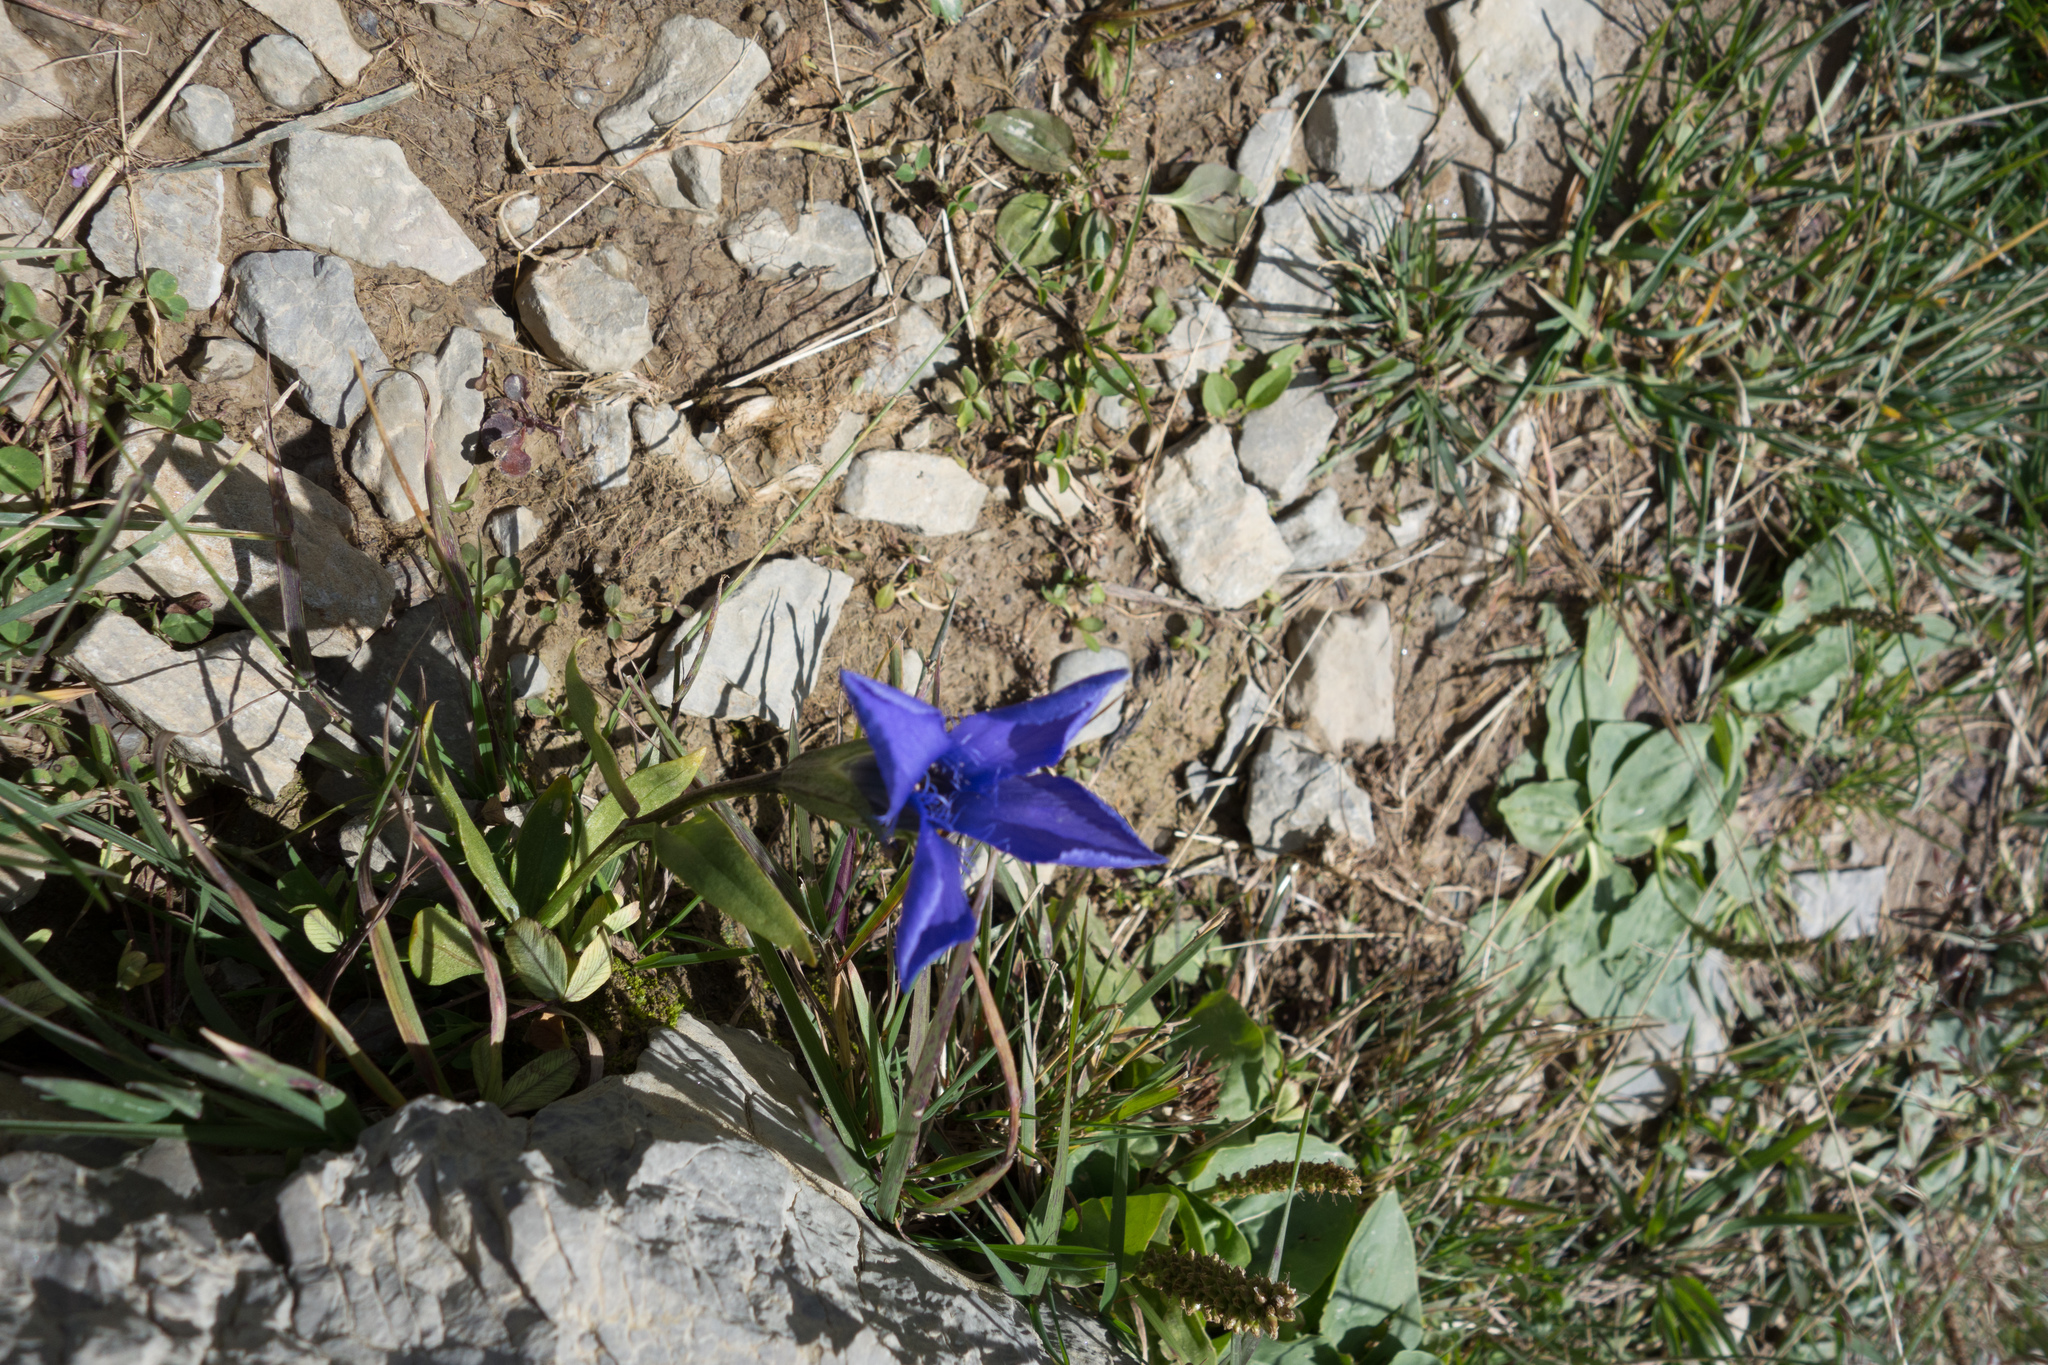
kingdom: Plantae
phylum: Tracheophyta
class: Magnoliopsida
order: Gentianales
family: Gentianaceae
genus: Gentianopsis
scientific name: Gentianopsis ciliata
